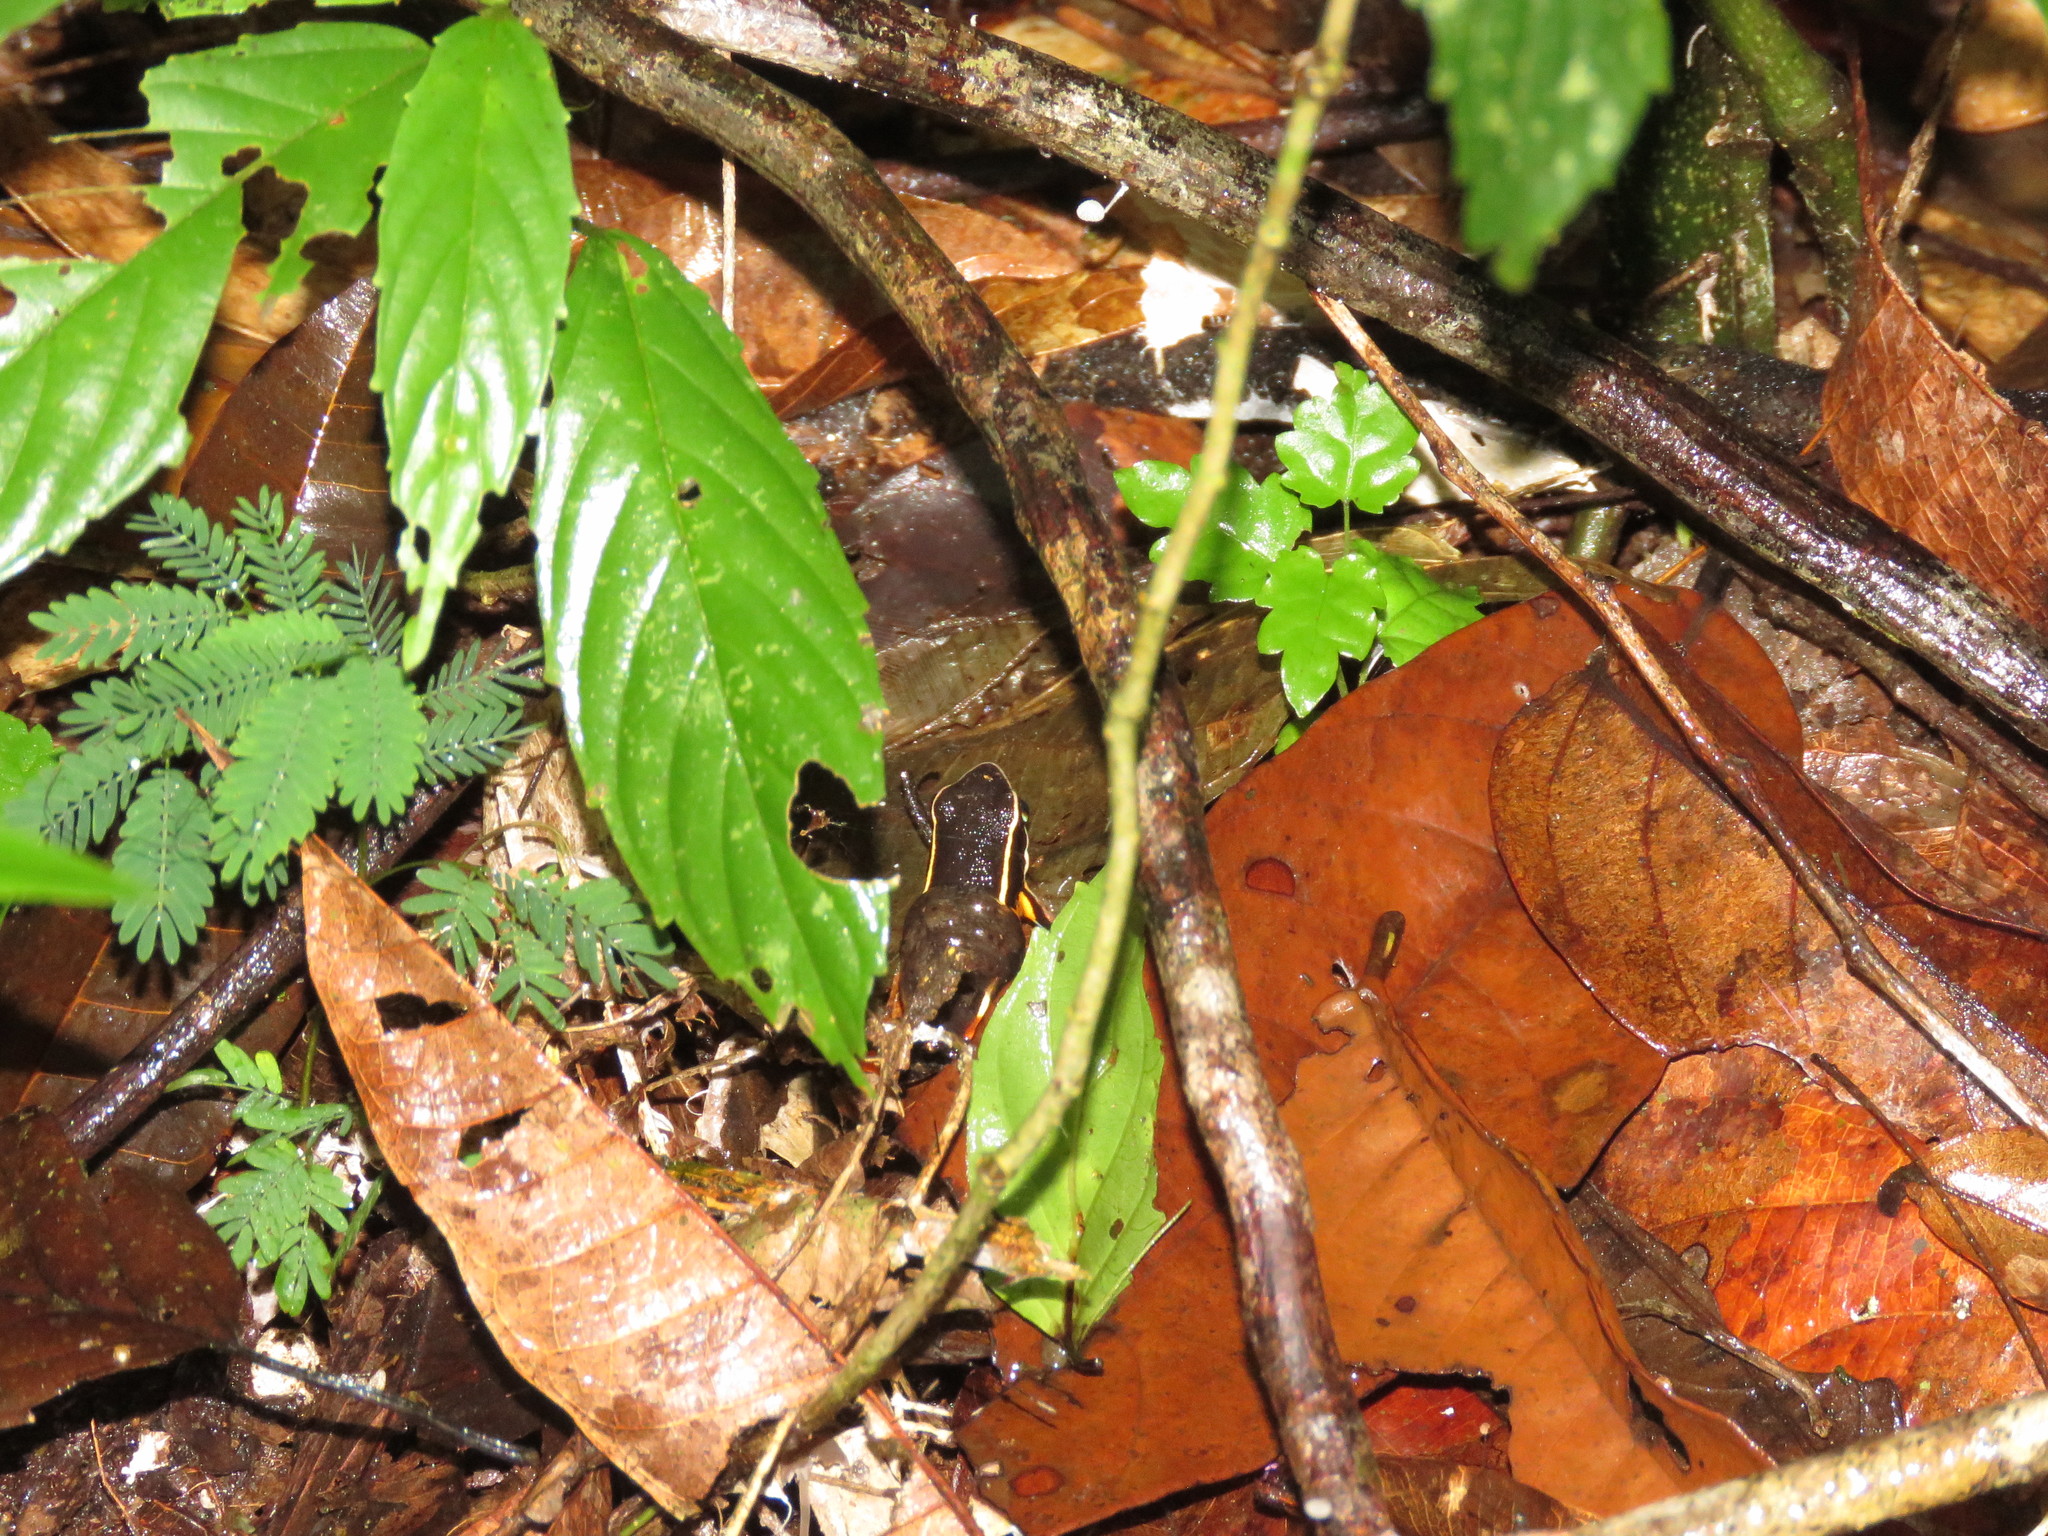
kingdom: Animalia
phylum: Chordata
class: Amphibia
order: Anura
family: Dendrobatidae
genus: Ameerega
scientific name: Ameerega picta
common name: Spot-legged poison frog
